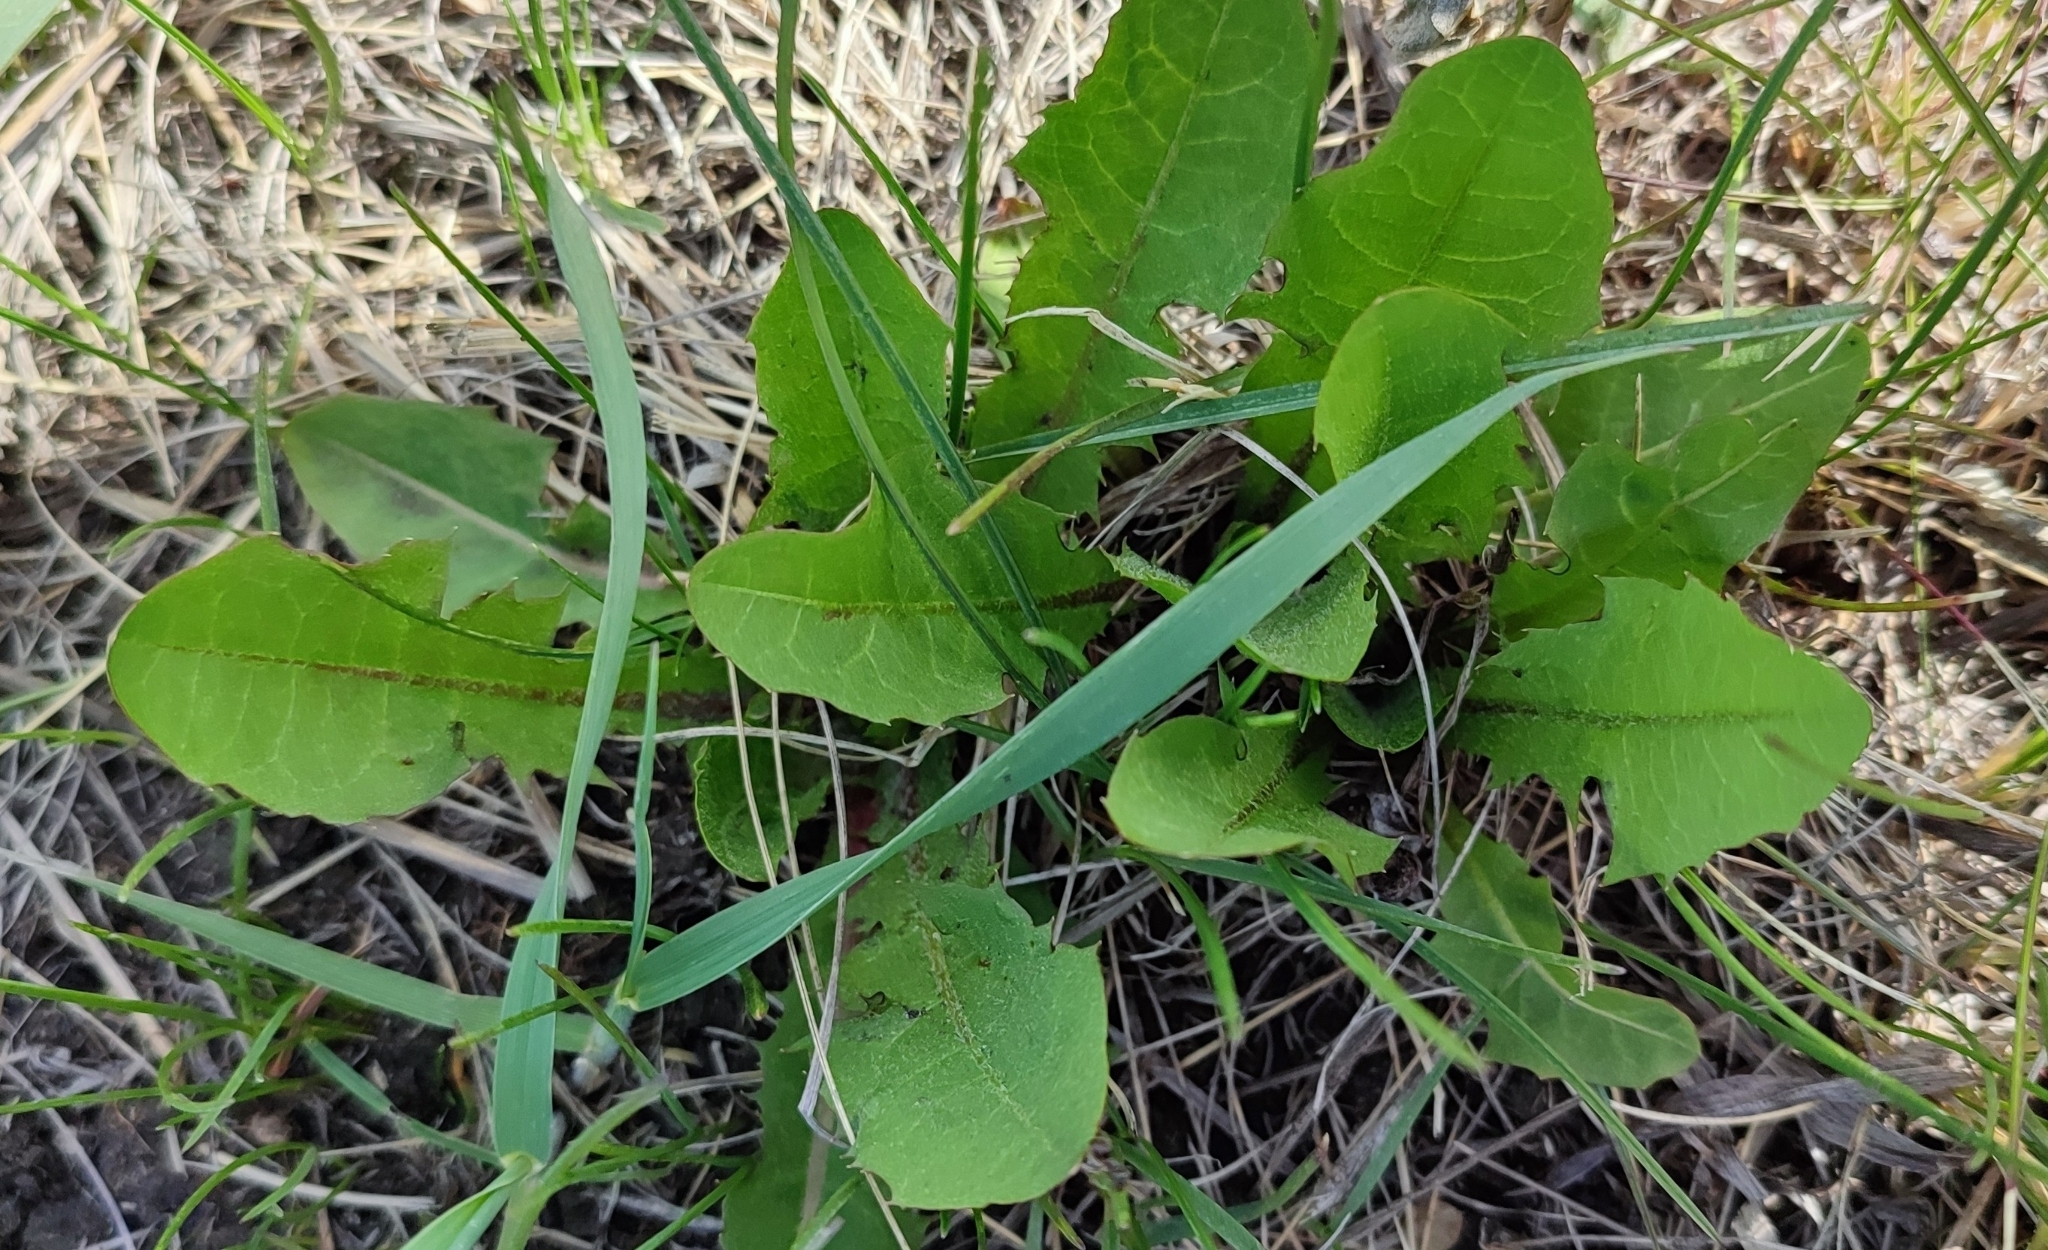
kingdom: Plantae
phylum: Tracheophyta
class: Magnoliopsida
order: Asterales
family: Asteraceae
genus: Taraxacum
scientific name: Taraxacum officinale
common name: Common dandelion
